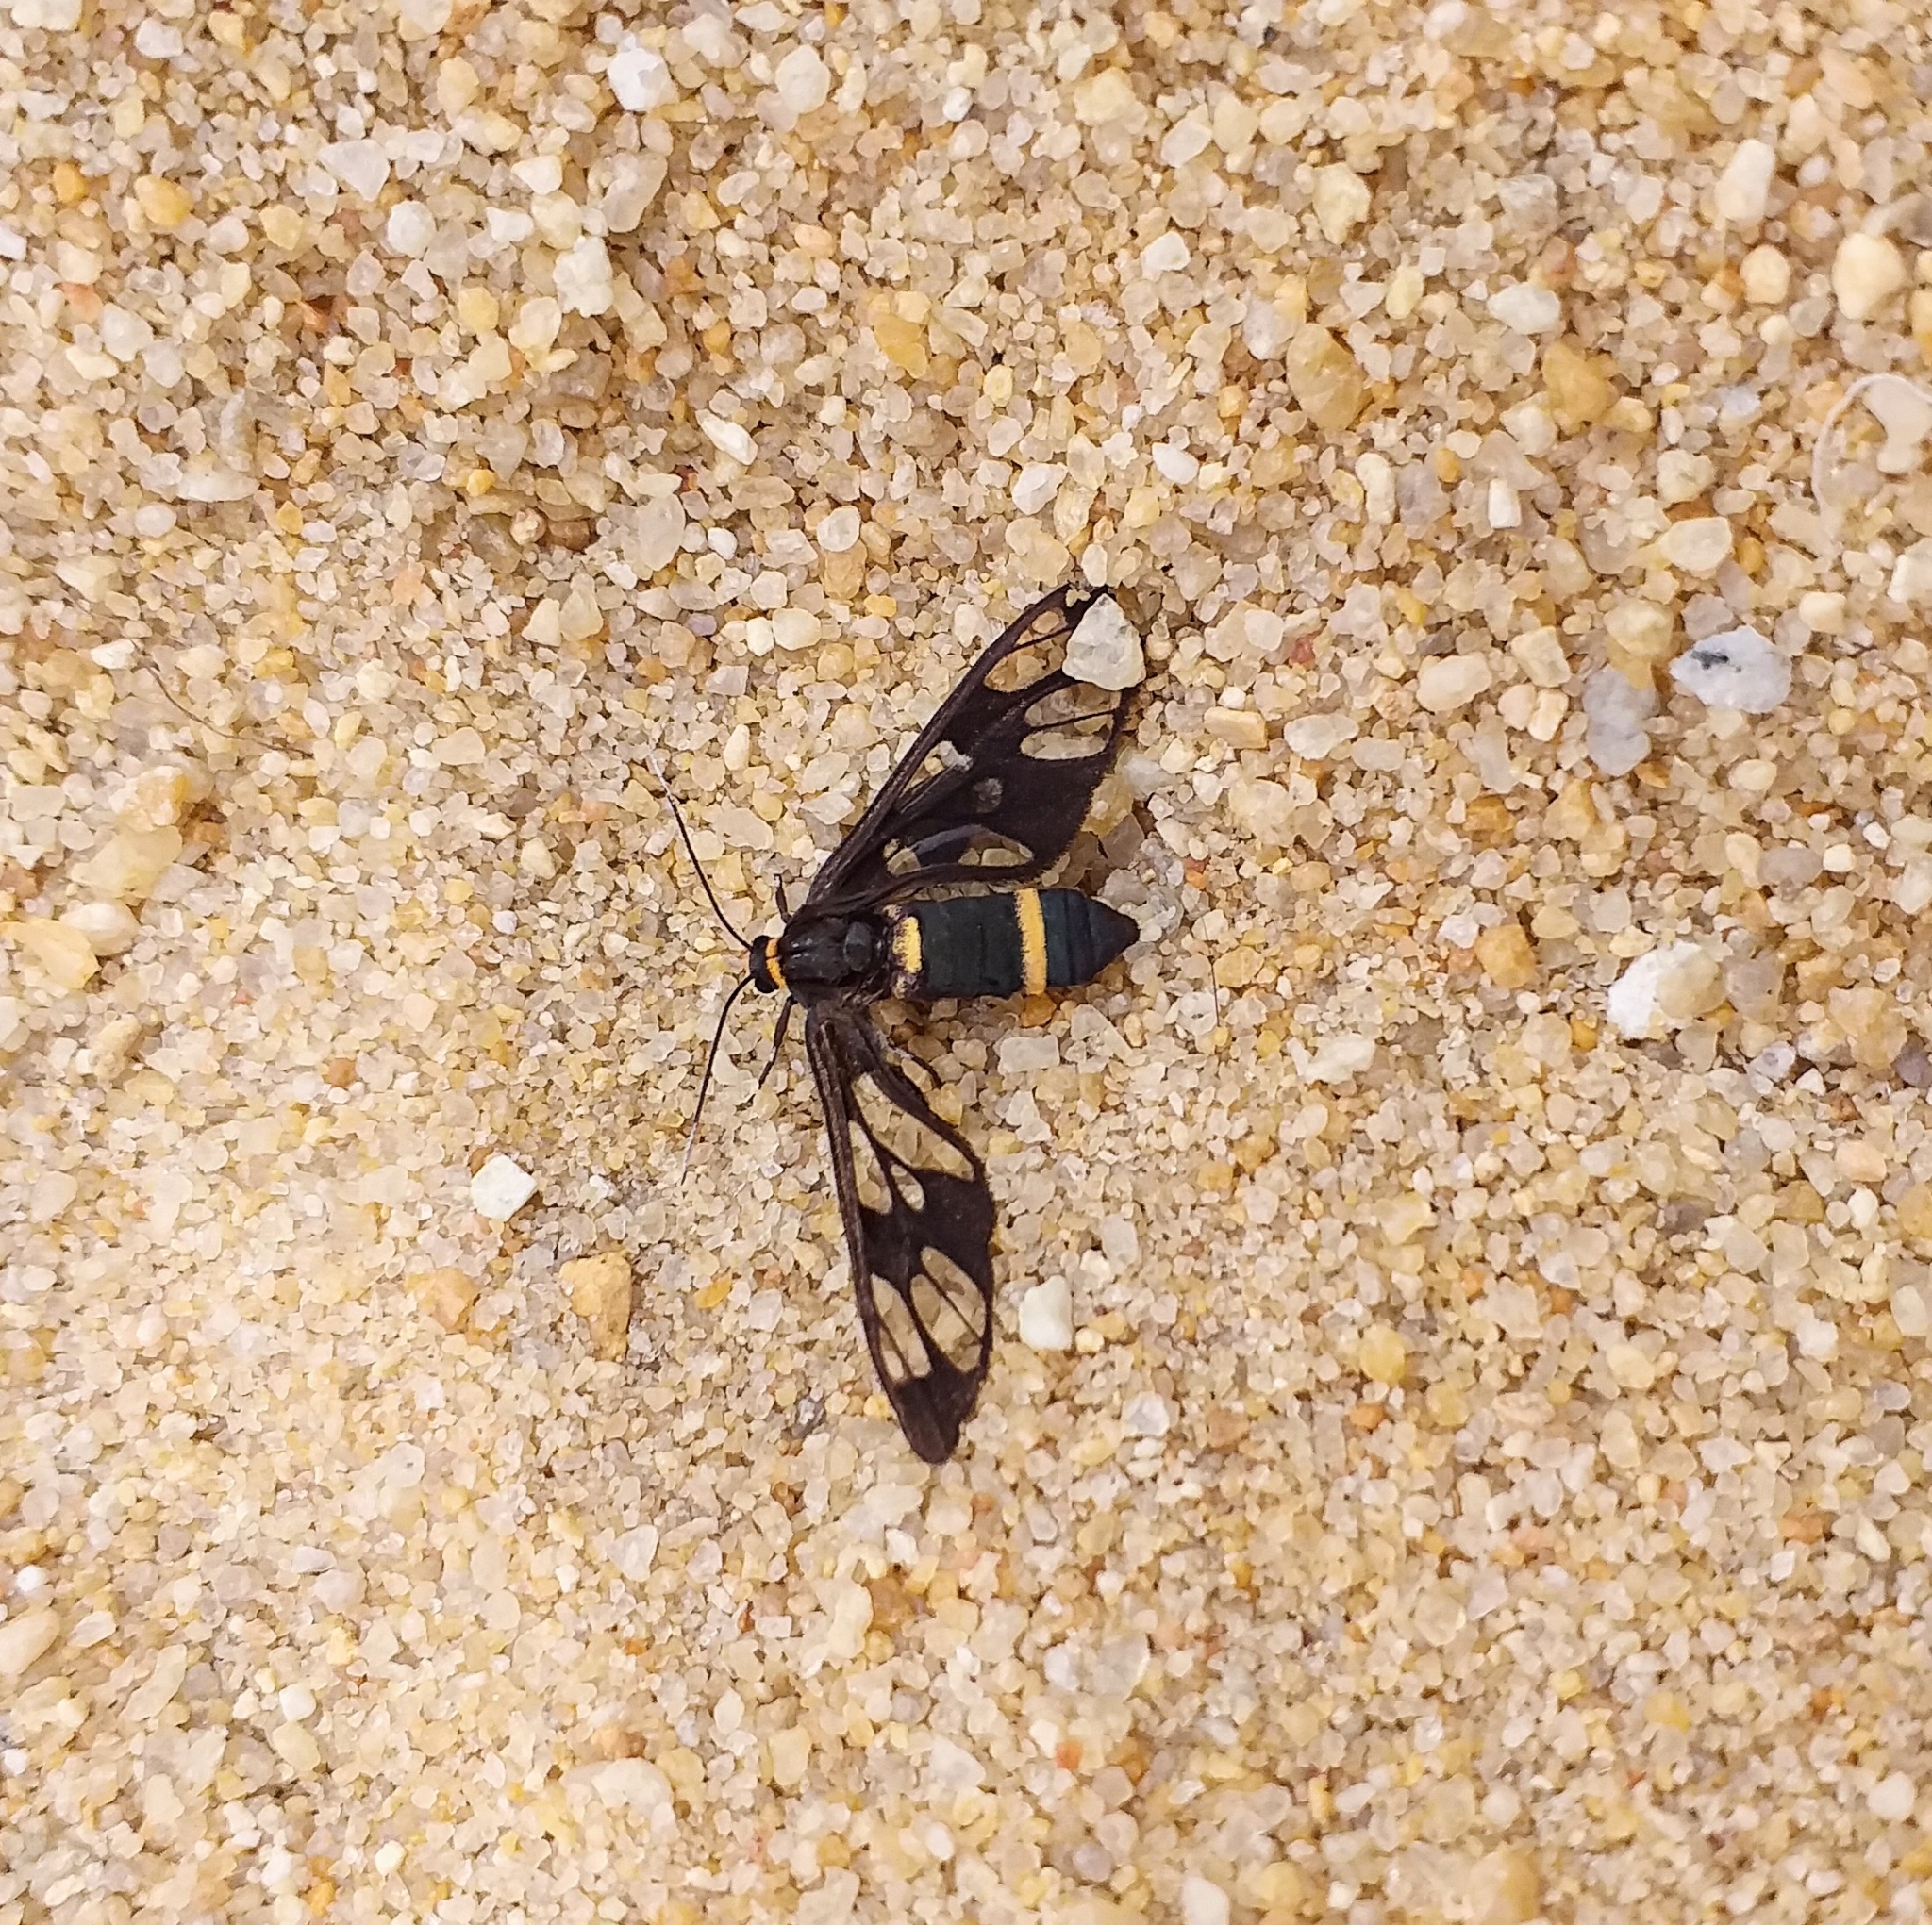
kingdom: Animalia
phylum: Arthropoda
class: Insecta
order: Lepidoptera
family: Erebidae
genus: Syntomoides
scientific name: Syntomoides imaon
